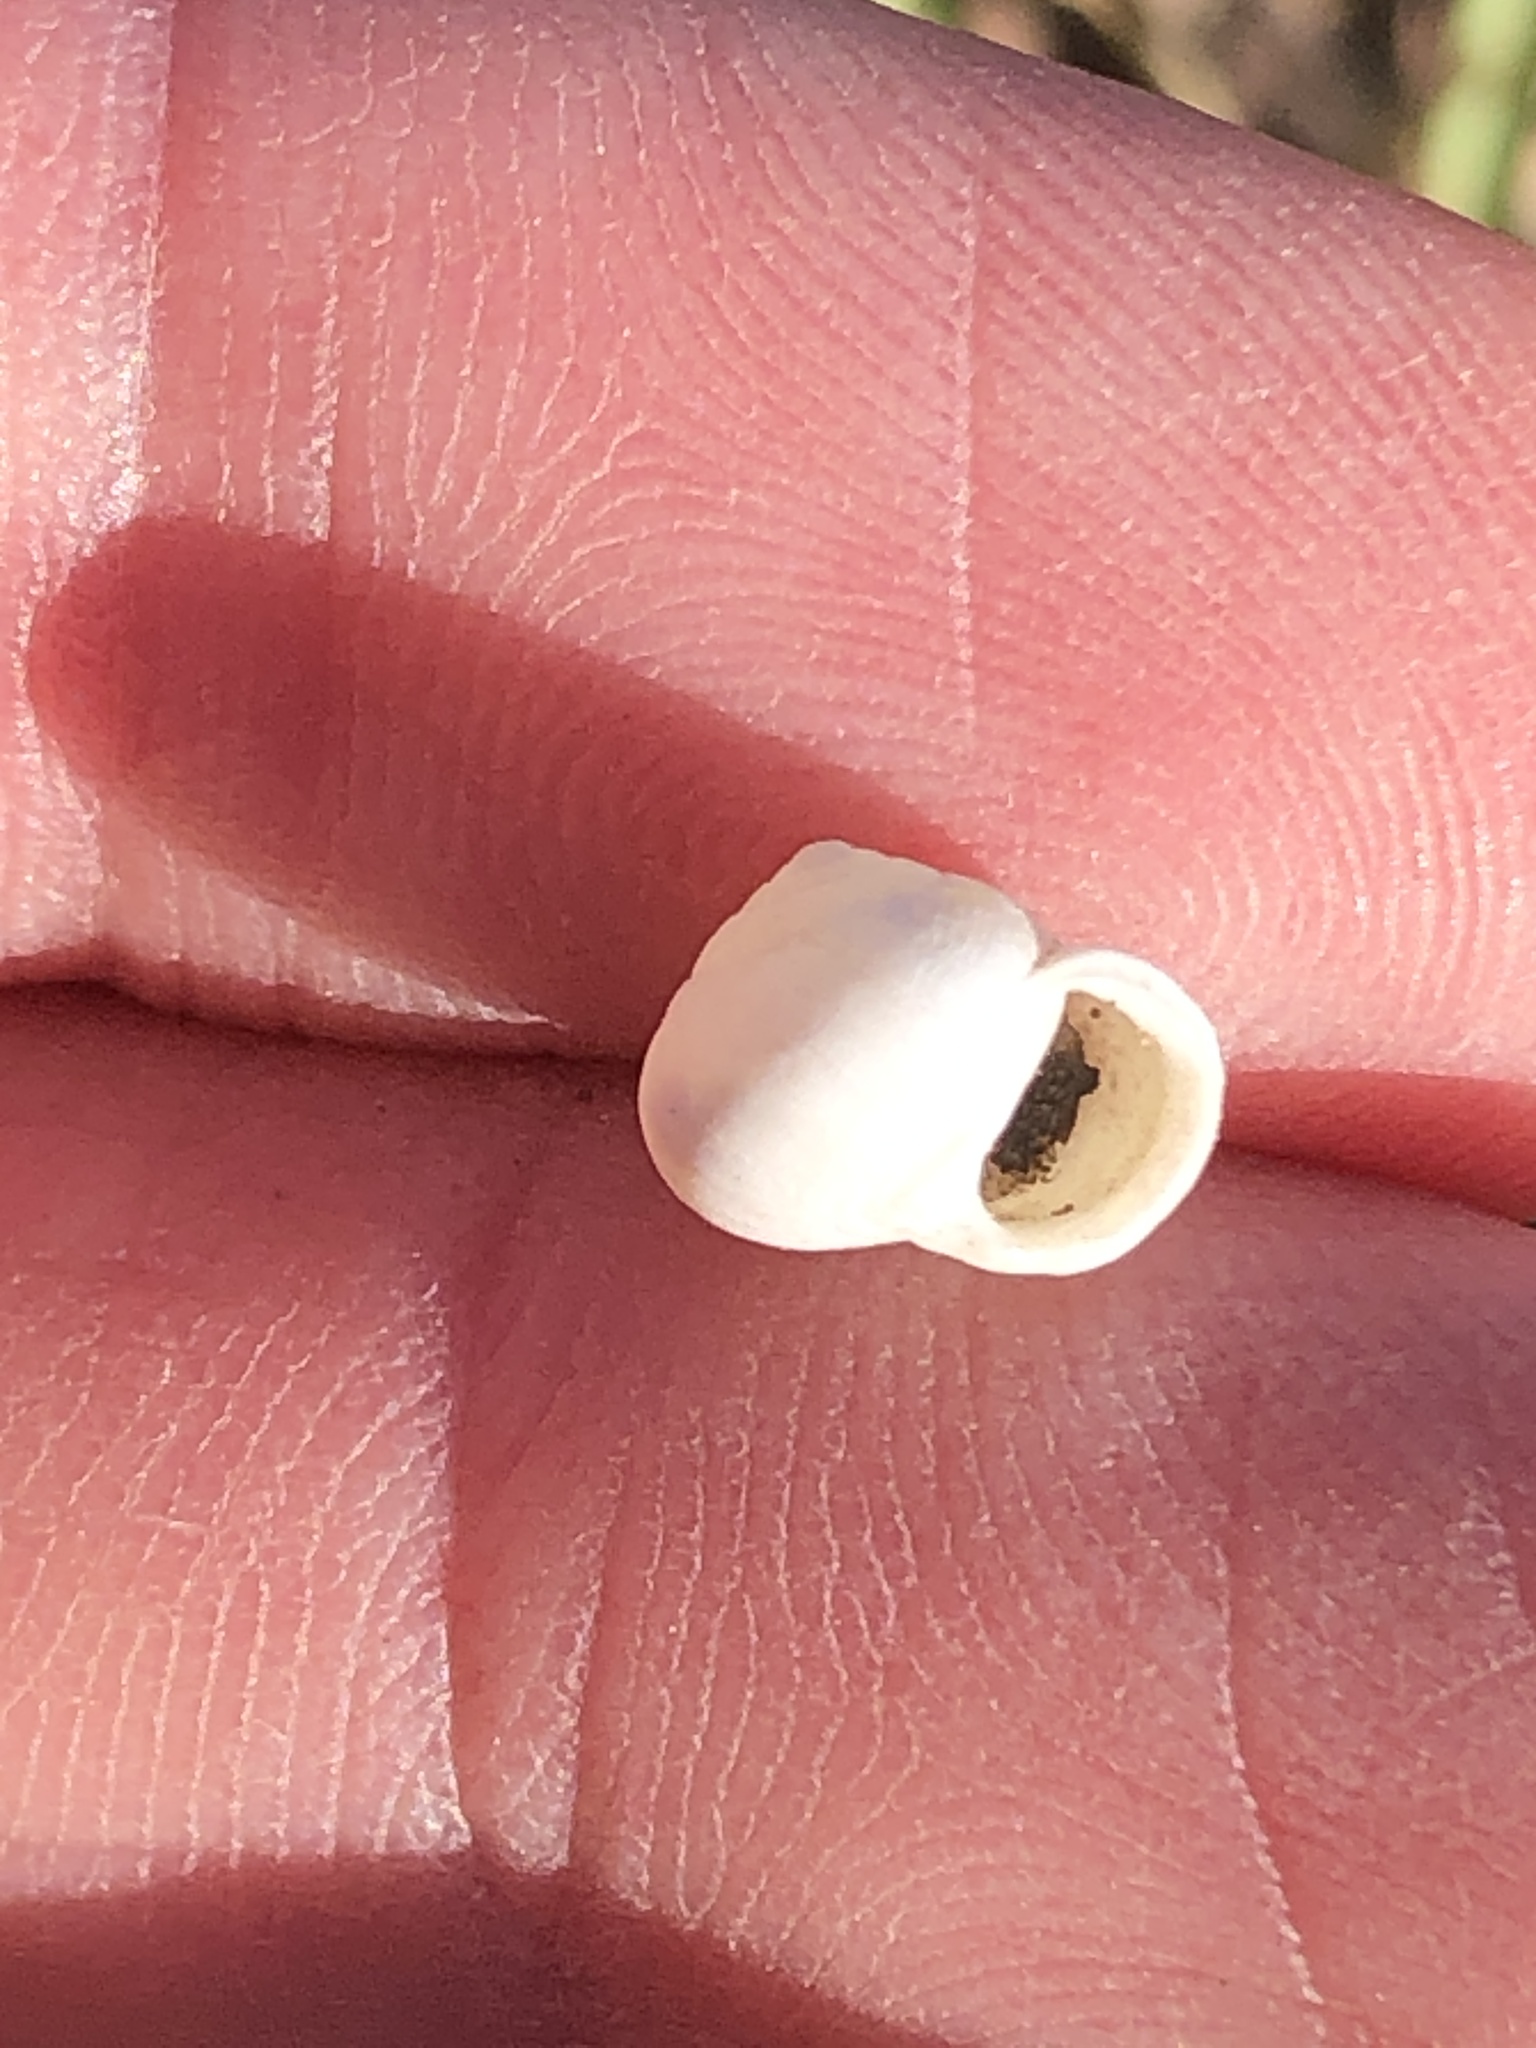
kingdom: Animalia
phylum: Mollusca
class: Gastropoda
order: Cycloneritida
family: Helicinidae
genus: Helicina
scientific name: Helicina orbiculata
